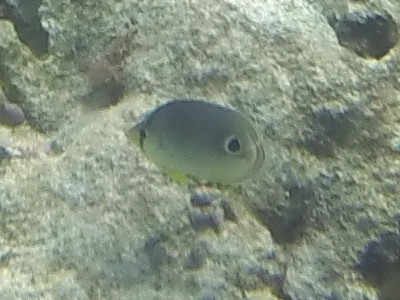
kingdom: Animalia
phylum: Chordata
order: Perciformes
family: Chaetodontidae
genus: Chaetodon
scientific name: Chaetodon capistratus
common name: Kete
